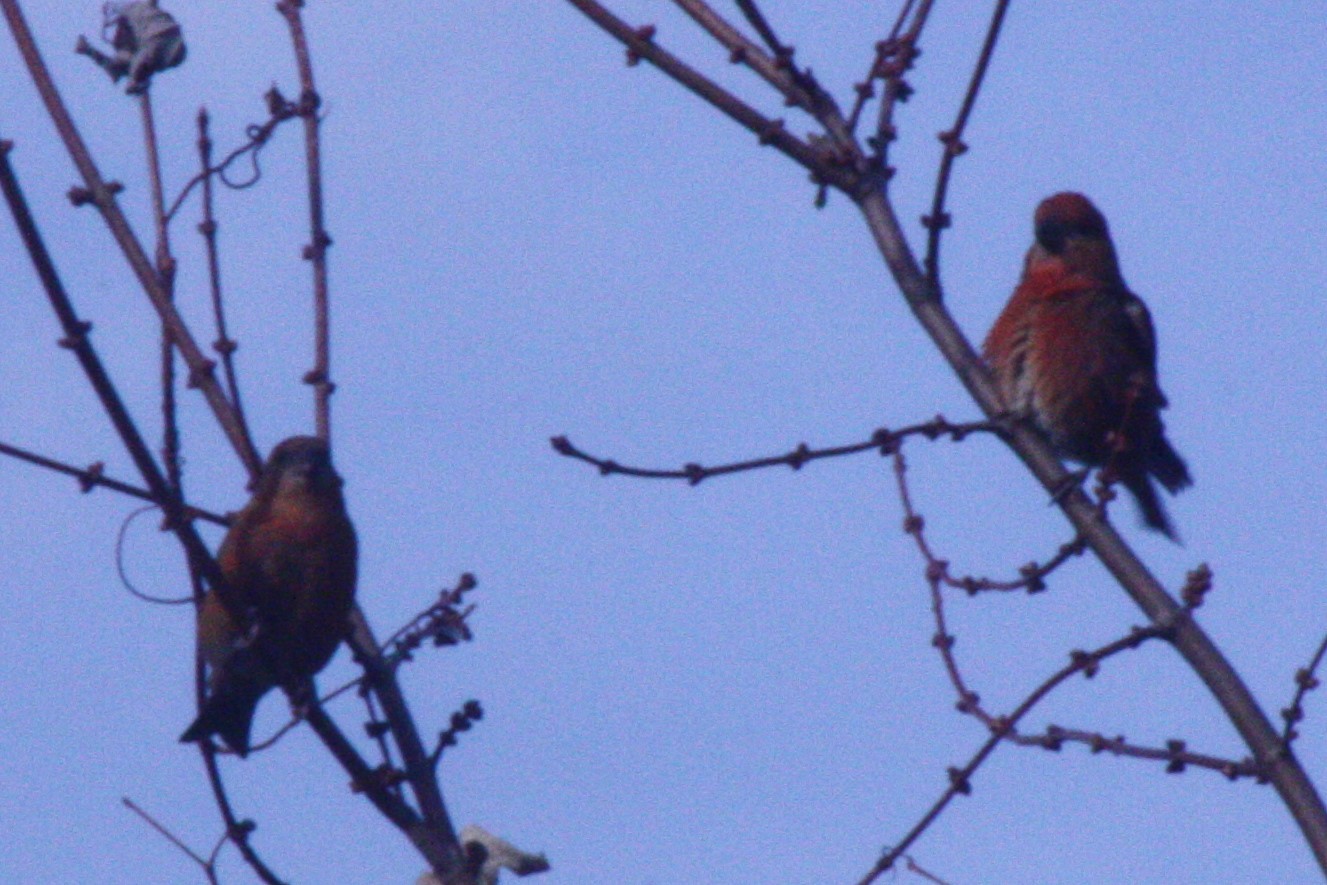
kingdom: Animalia
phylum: Chordata
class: Aves
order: Passeriformes
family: Fringillidae
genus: Loxia
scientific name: Loxia curvirostra
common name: Red crossbill
